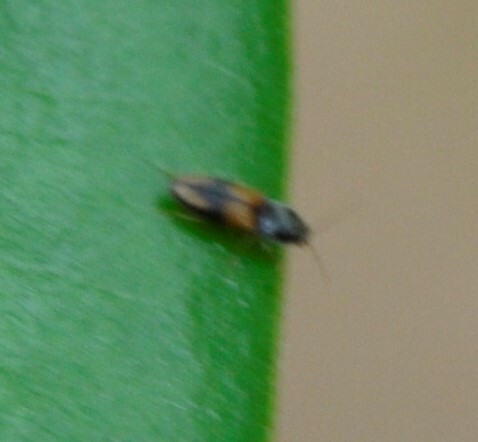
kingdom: Animalia
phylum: Arthropoda
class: Insecta
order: Coleoptera
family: Elateridae
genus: Horistonotus
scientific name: Horistonotus curiatus
